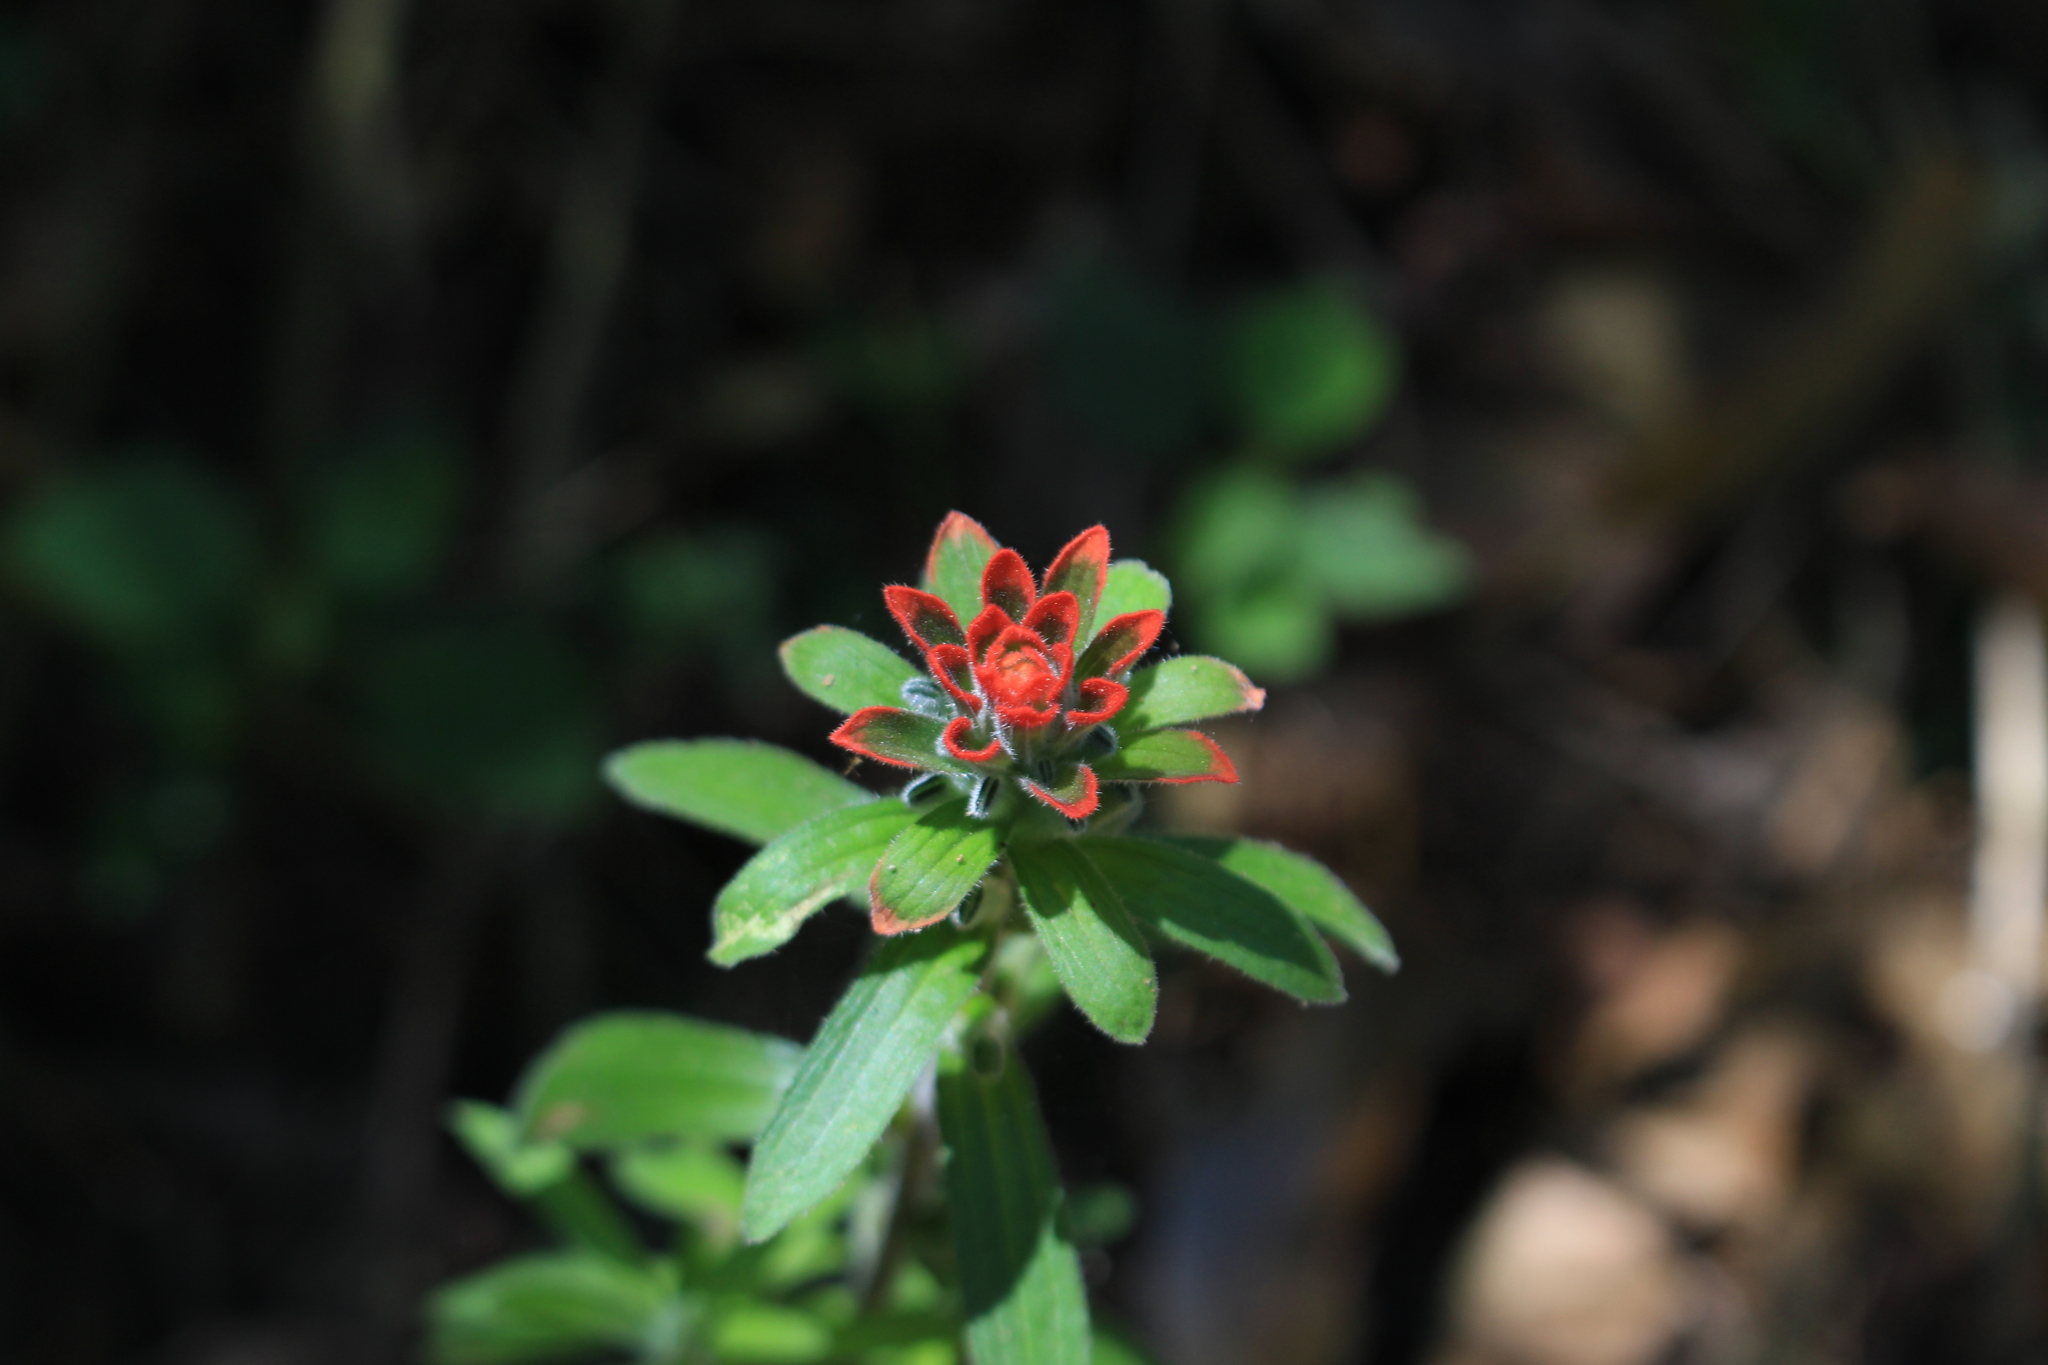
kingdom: Plantae
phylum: Tracheophyta
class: Magnoliopsida
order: Lamiales
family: Orobanchaceae
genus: Castilleja
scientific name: Castilleja arvensis
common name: Indian paintbrush
